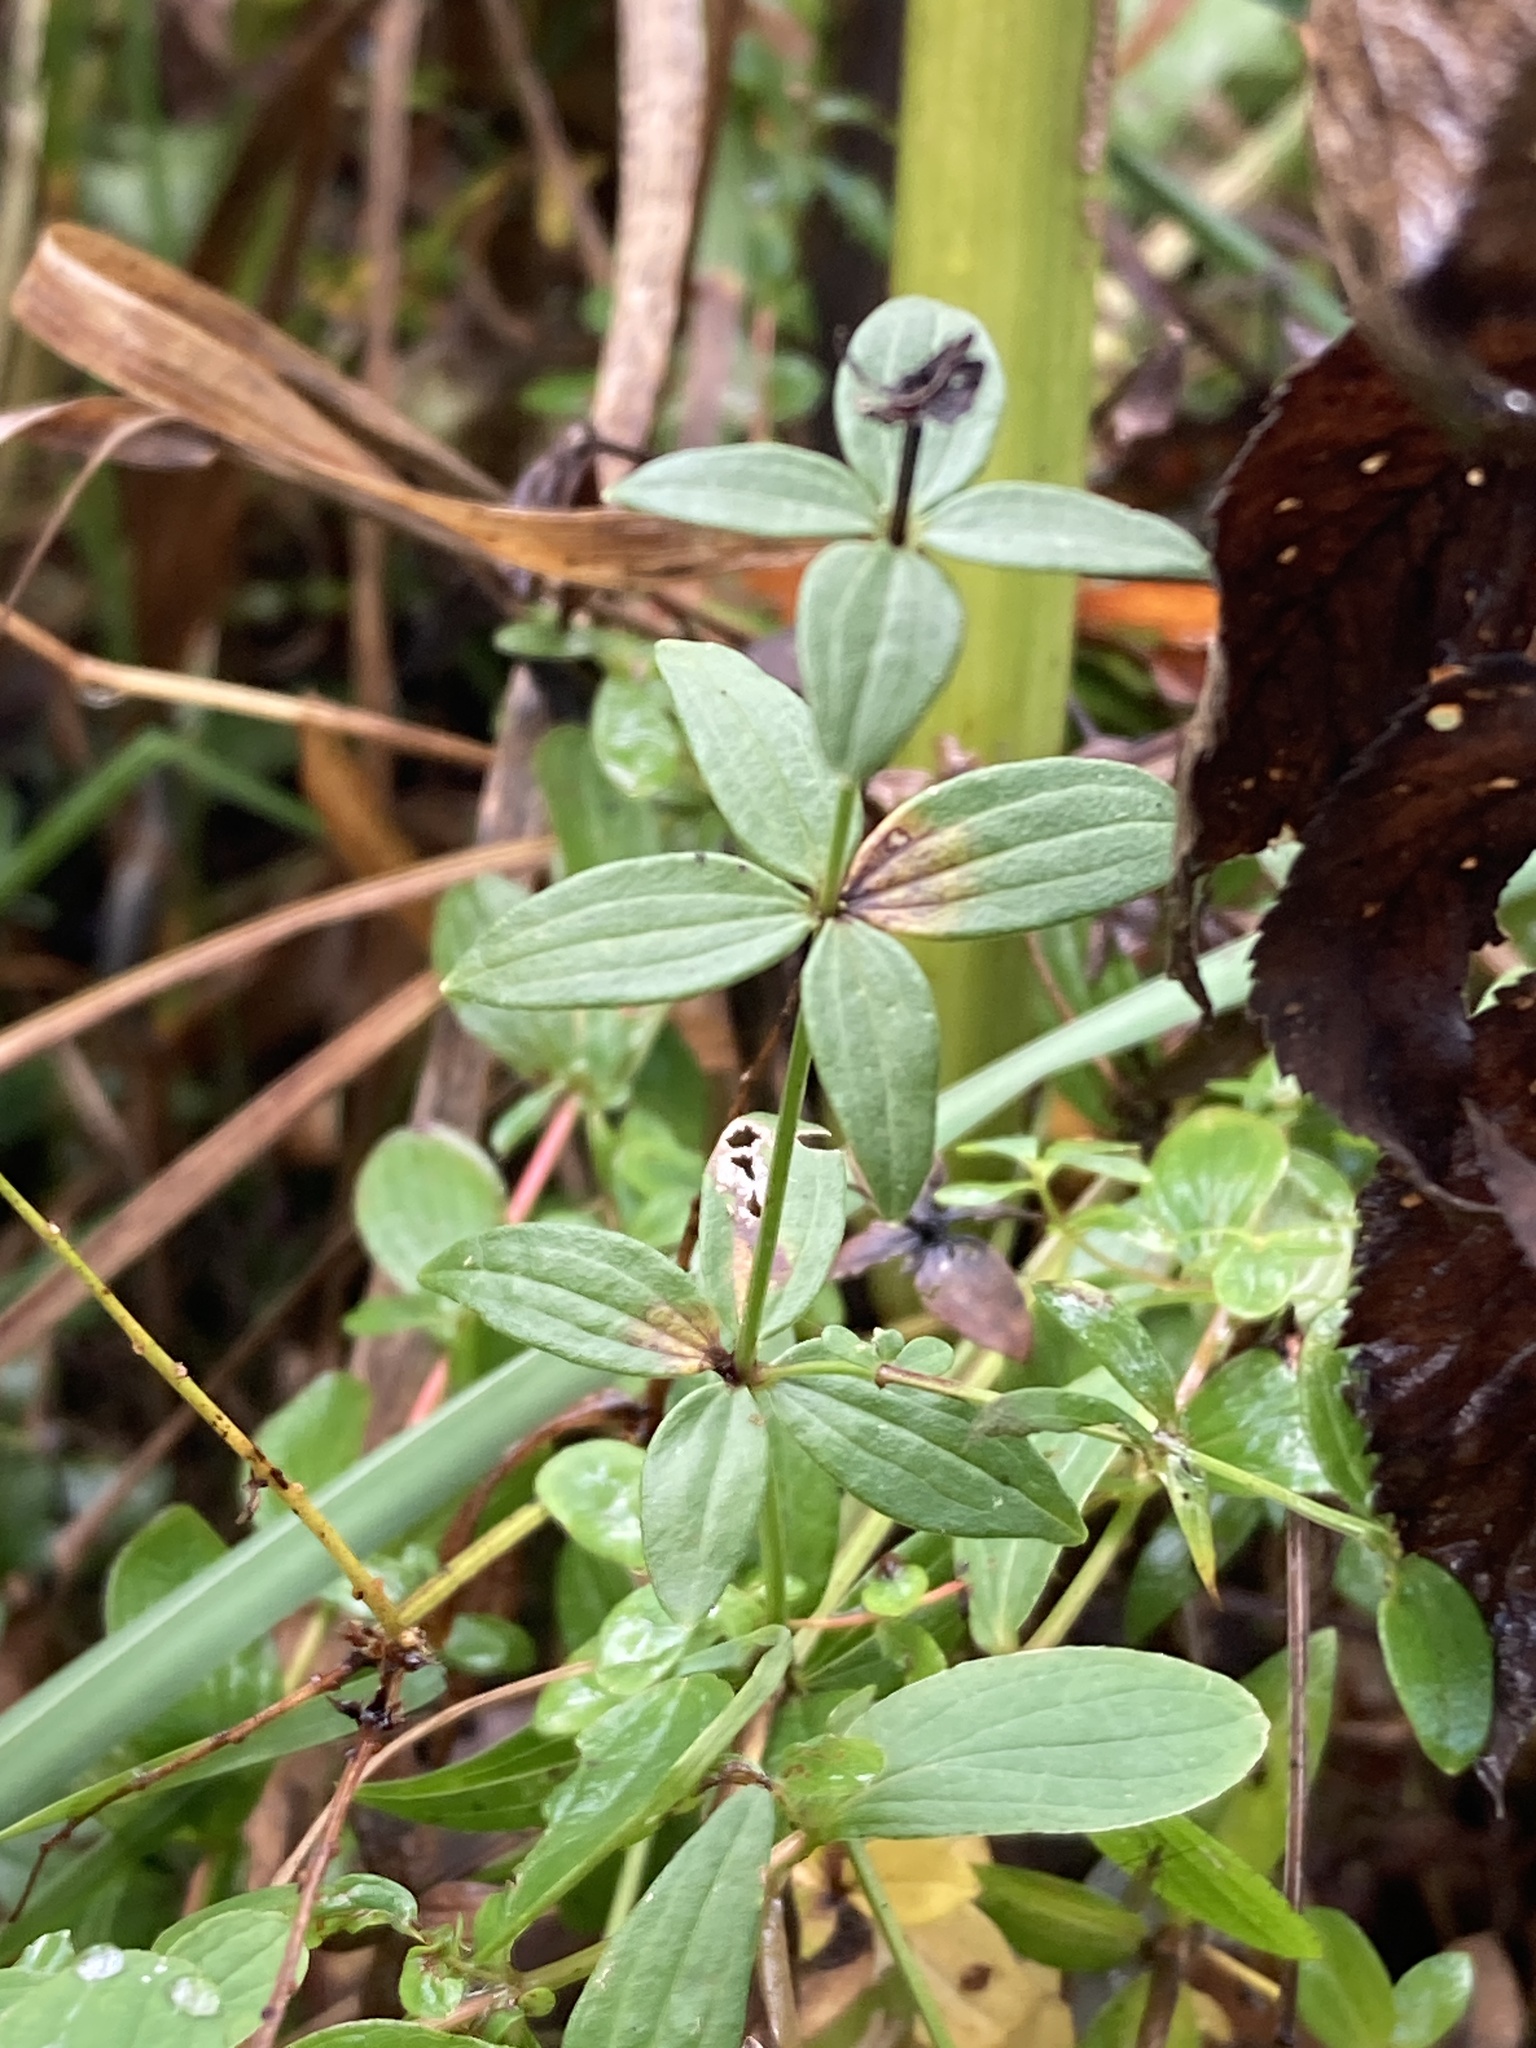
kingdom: Plantae
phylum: Tracheophyta
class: Magnoliopsida
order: Gentianales
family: Rubiaceae
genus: Galium
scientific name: Galium boreale
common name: Northern bedstraw
